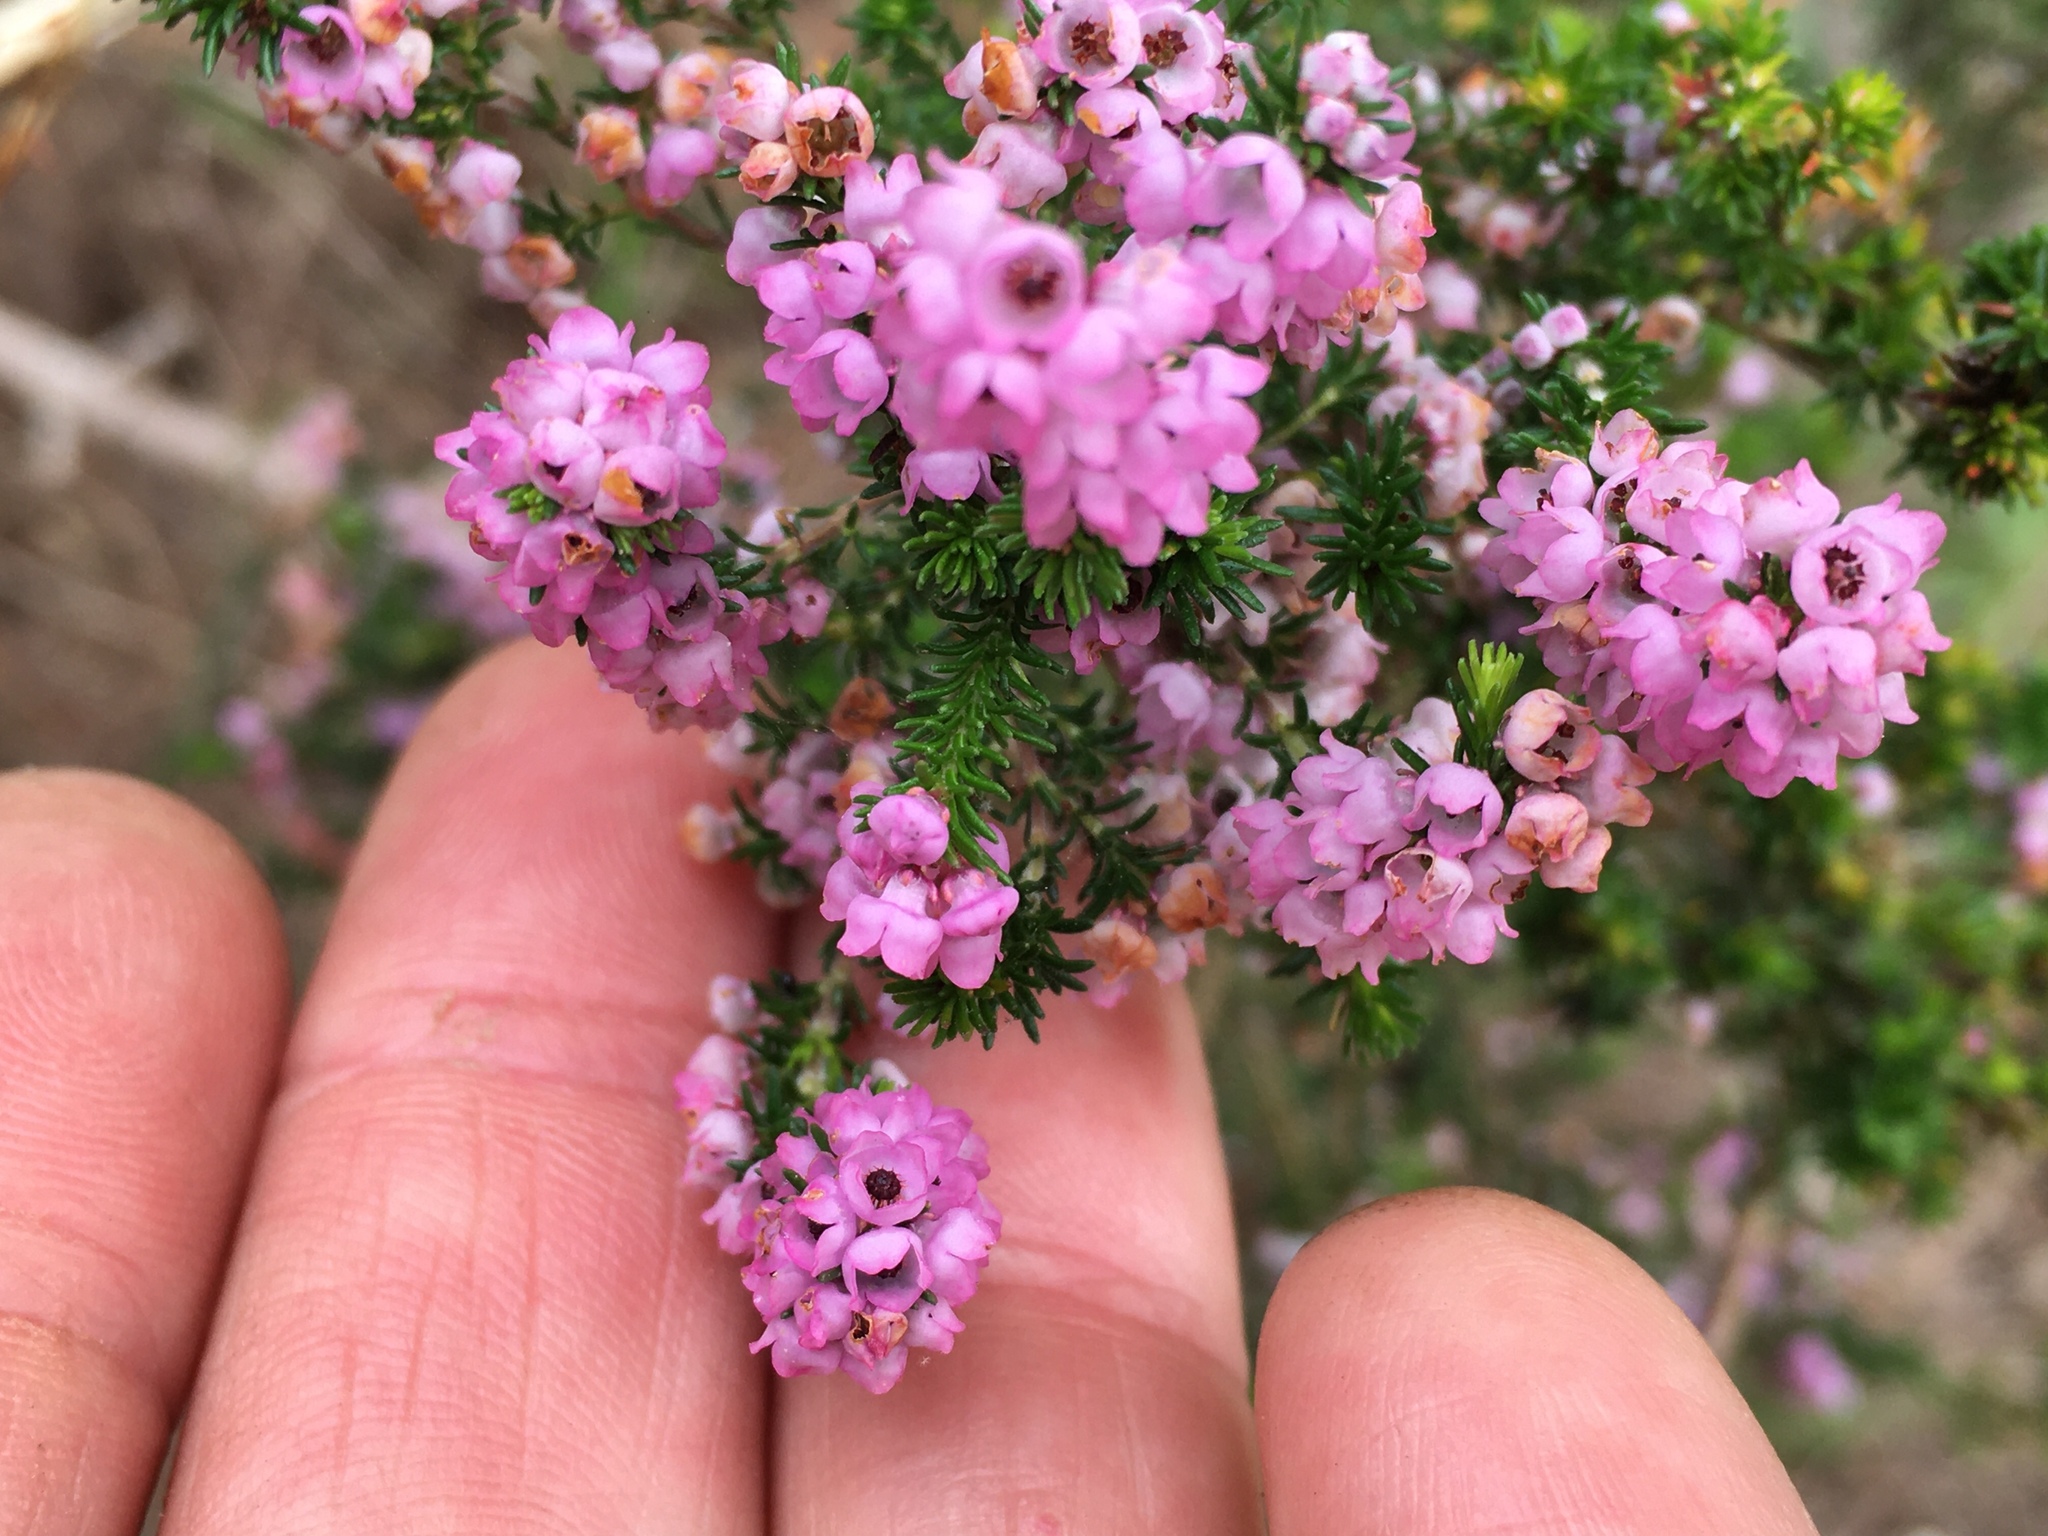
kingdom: Plantae
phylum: Tracheophyta
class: Magnoliopsida
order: Ericales
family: Ericaceae
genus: Erica
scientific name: Erica mauritanica
